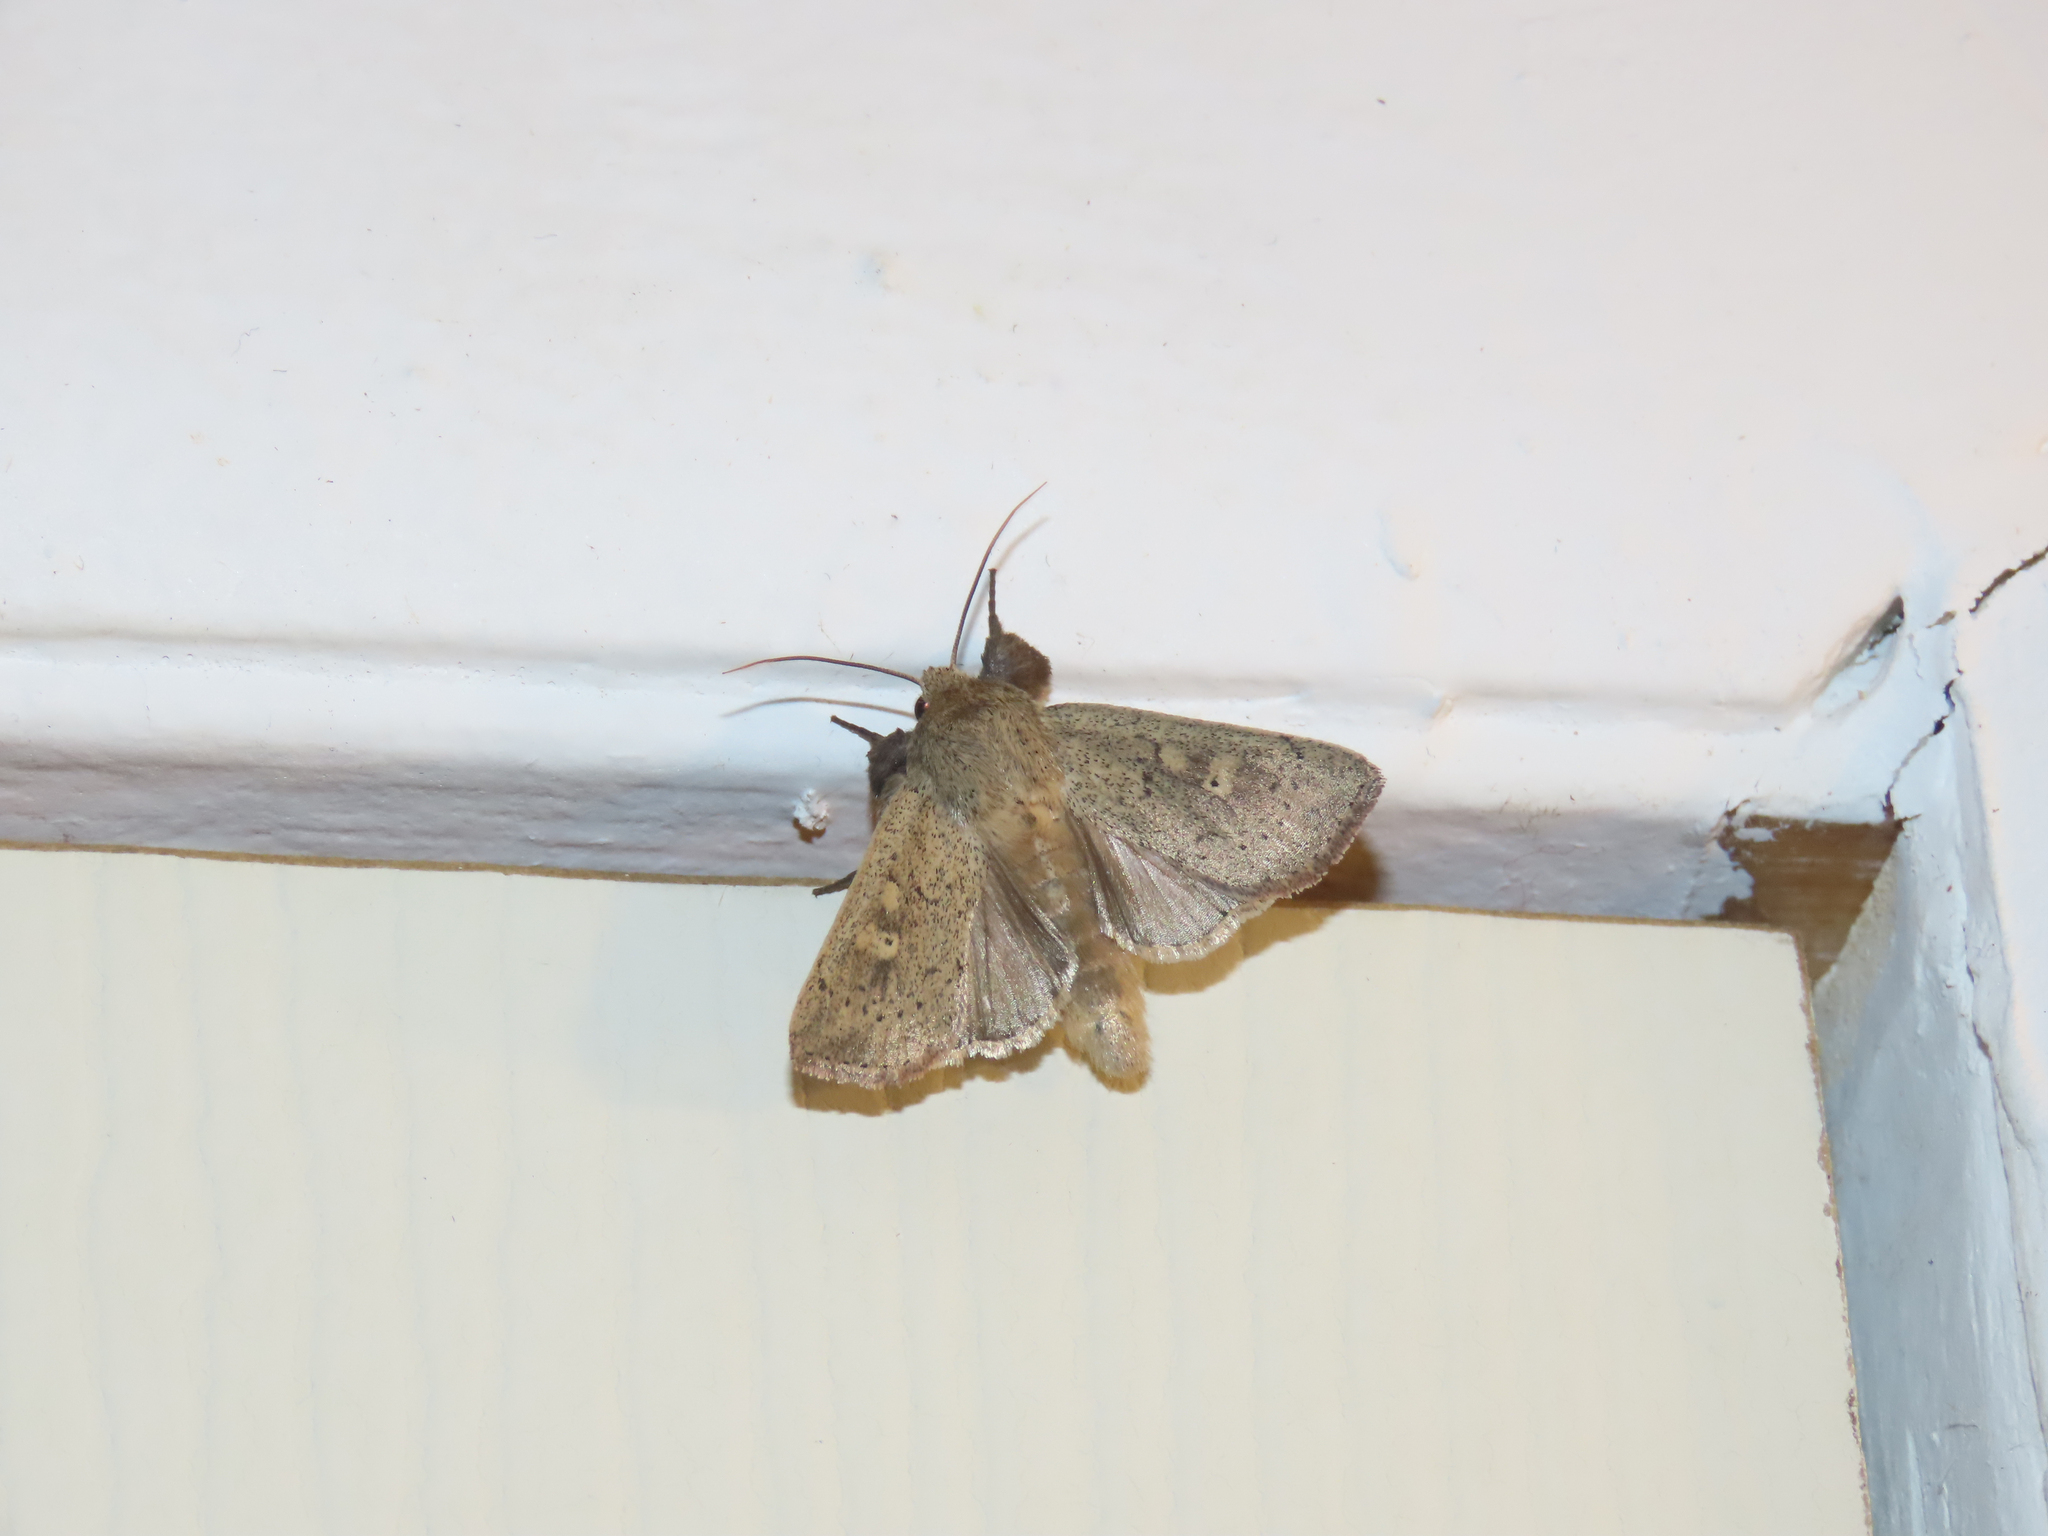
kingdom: Animalia
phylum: Arthropoda
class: Insecta
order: Lepidoptera
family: Noctuidae
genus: Leucania
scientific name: Leucania ursula
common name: Ursula wainscot
